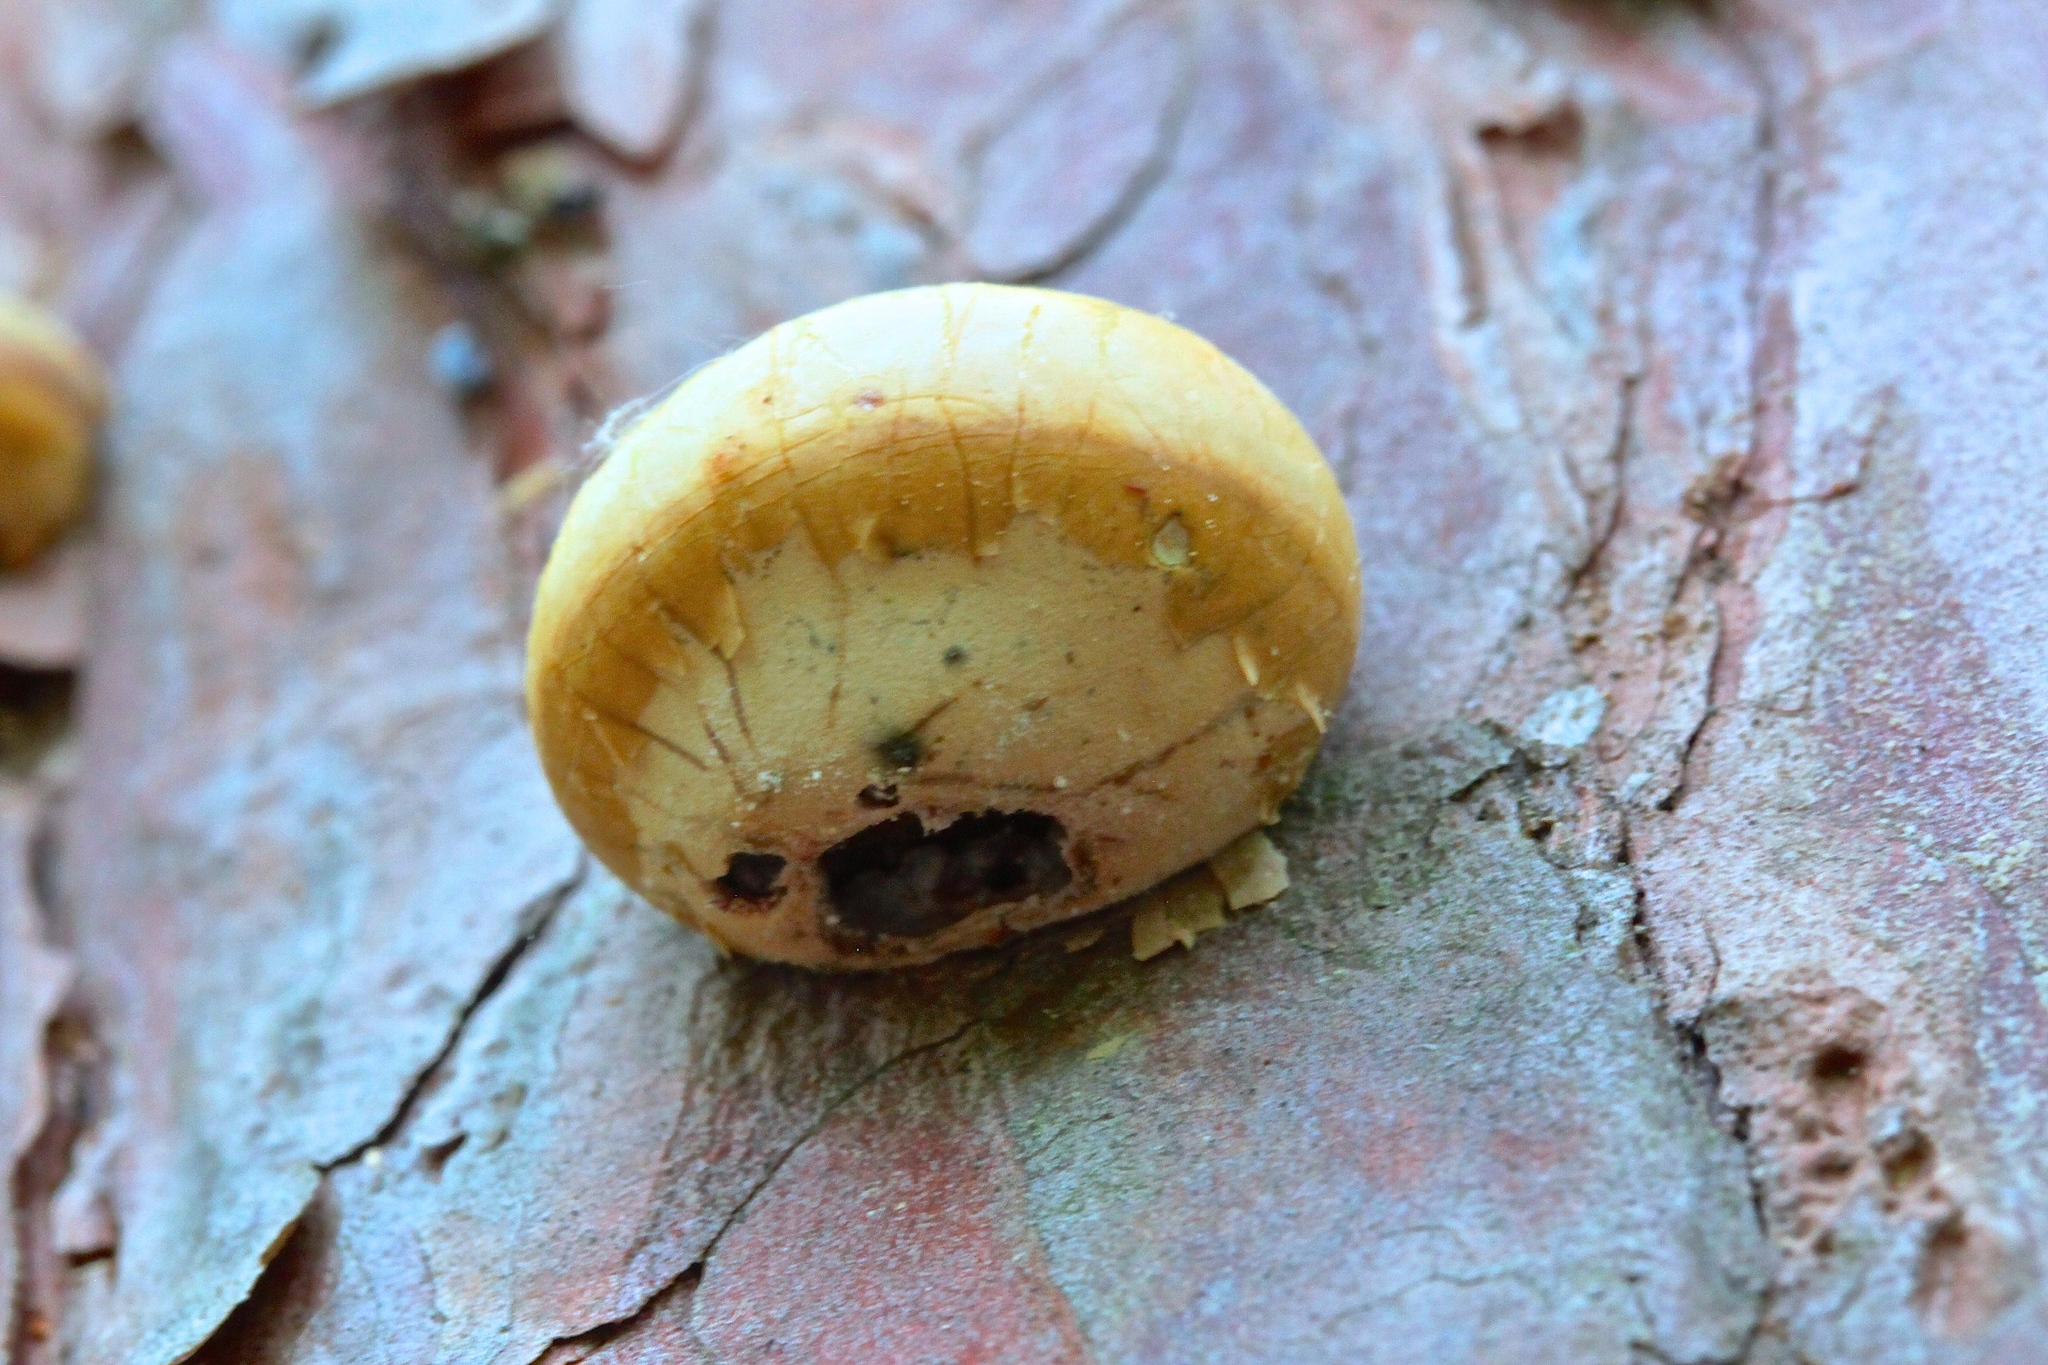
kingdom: Fungi
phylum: Basidiomycota
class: Agaricomycetes
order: Polyporales
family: Polyporaceae
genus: Cryptoporus
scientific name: Cryptoporus volvatus
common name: Veiled polypore
